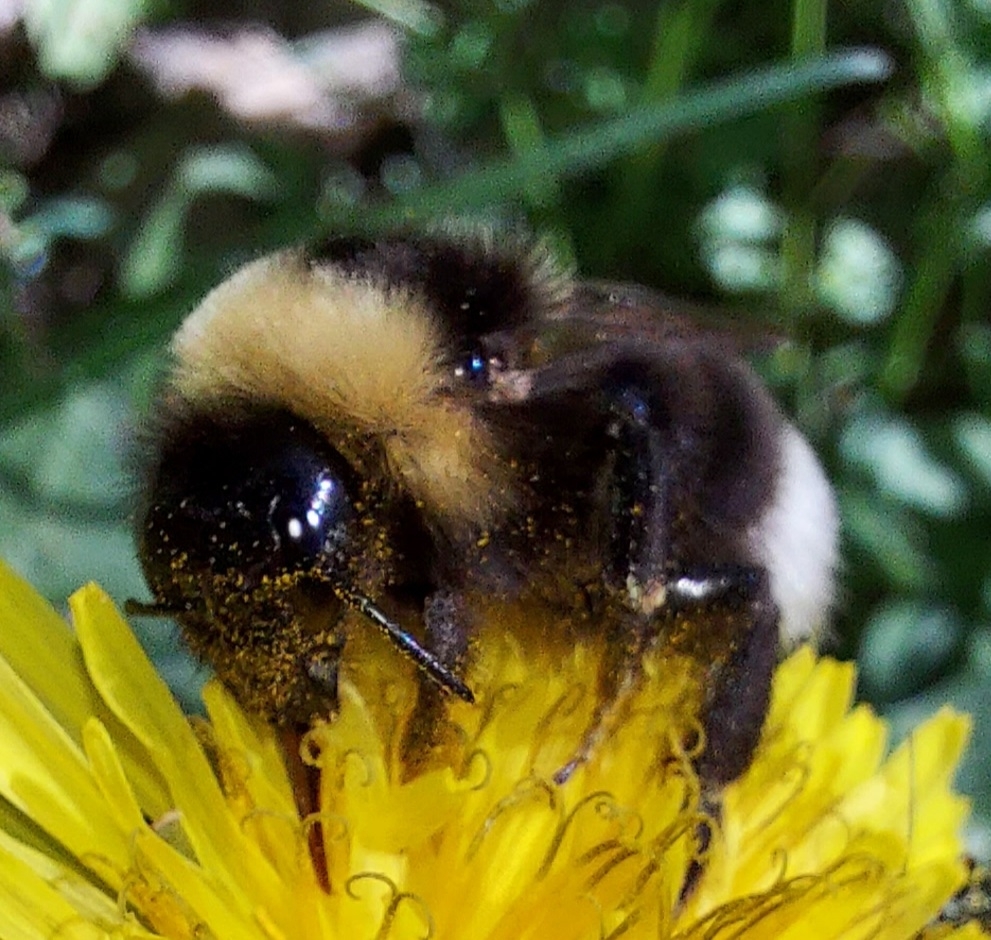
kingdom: Animalia
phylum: Arthropoda
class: Insecta
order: Hymenoptera
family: Apidae
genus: Bombus
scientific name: Bombus bohemicus
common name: Gypsy cuckoo bee
